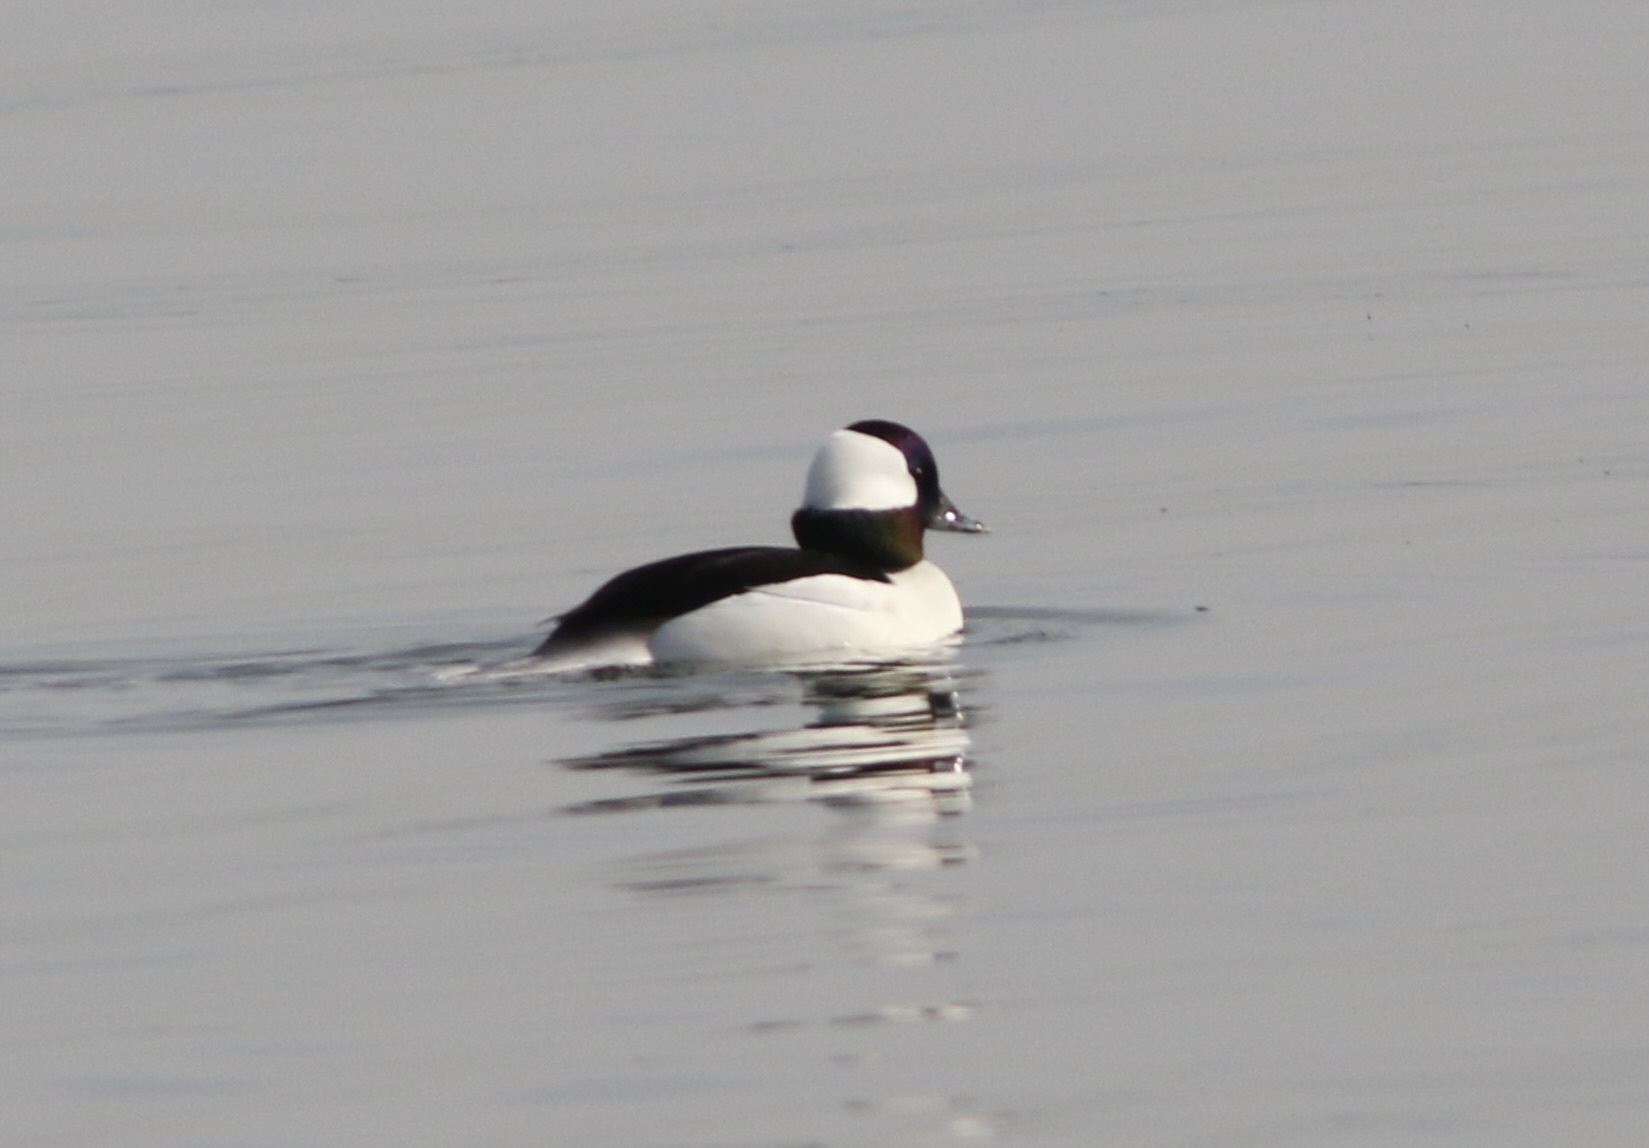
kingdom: Animalia
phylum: Chordata
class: Aves
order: Anseriformes
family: Anatidae
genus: Bucephala
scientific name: Bucephala albeola
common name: Bufflehead
